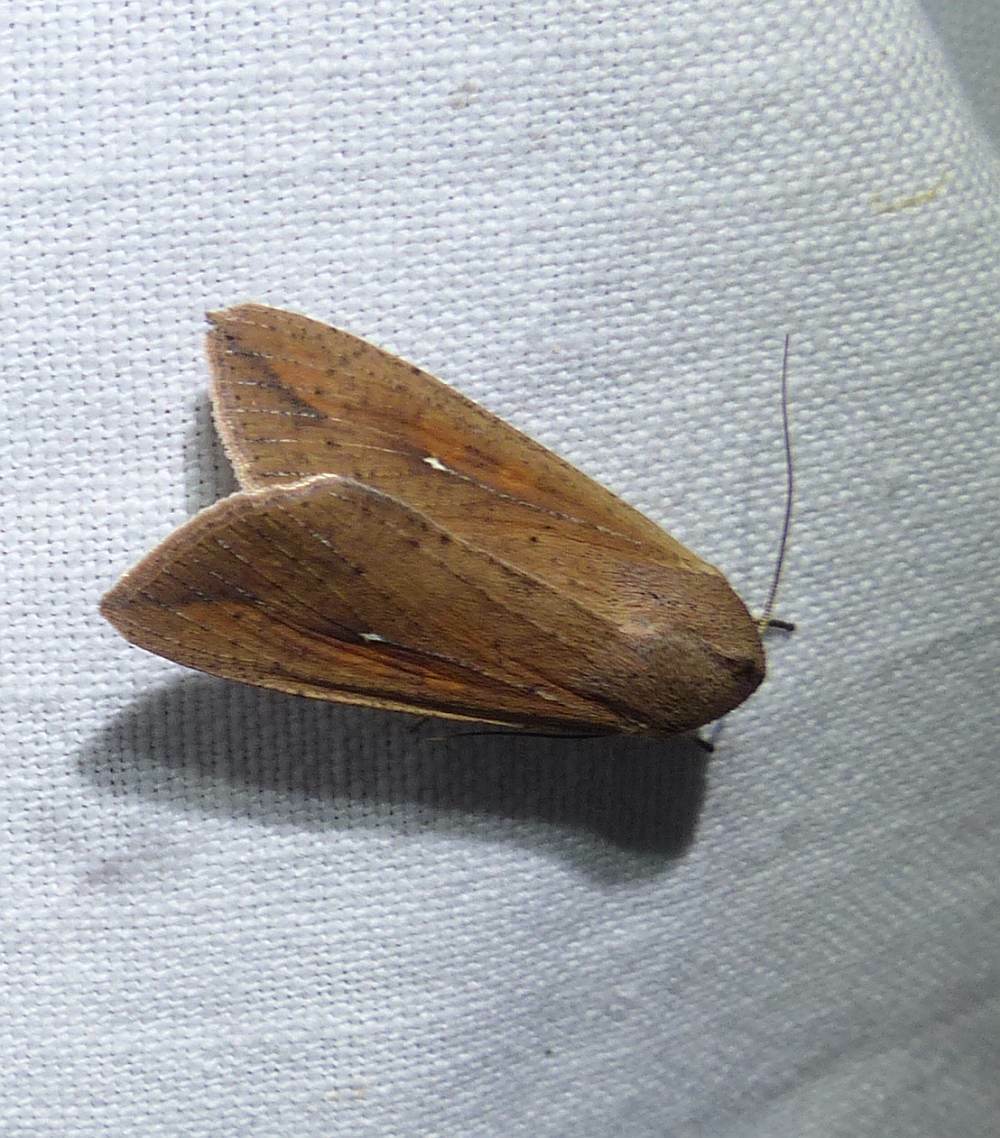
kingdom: Animalia
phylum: Arthropoda
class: Insecta
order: Lepidoptera
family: Noctuidae
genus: Mythimna
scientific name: Mythimna unipuncta
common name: White-speck
